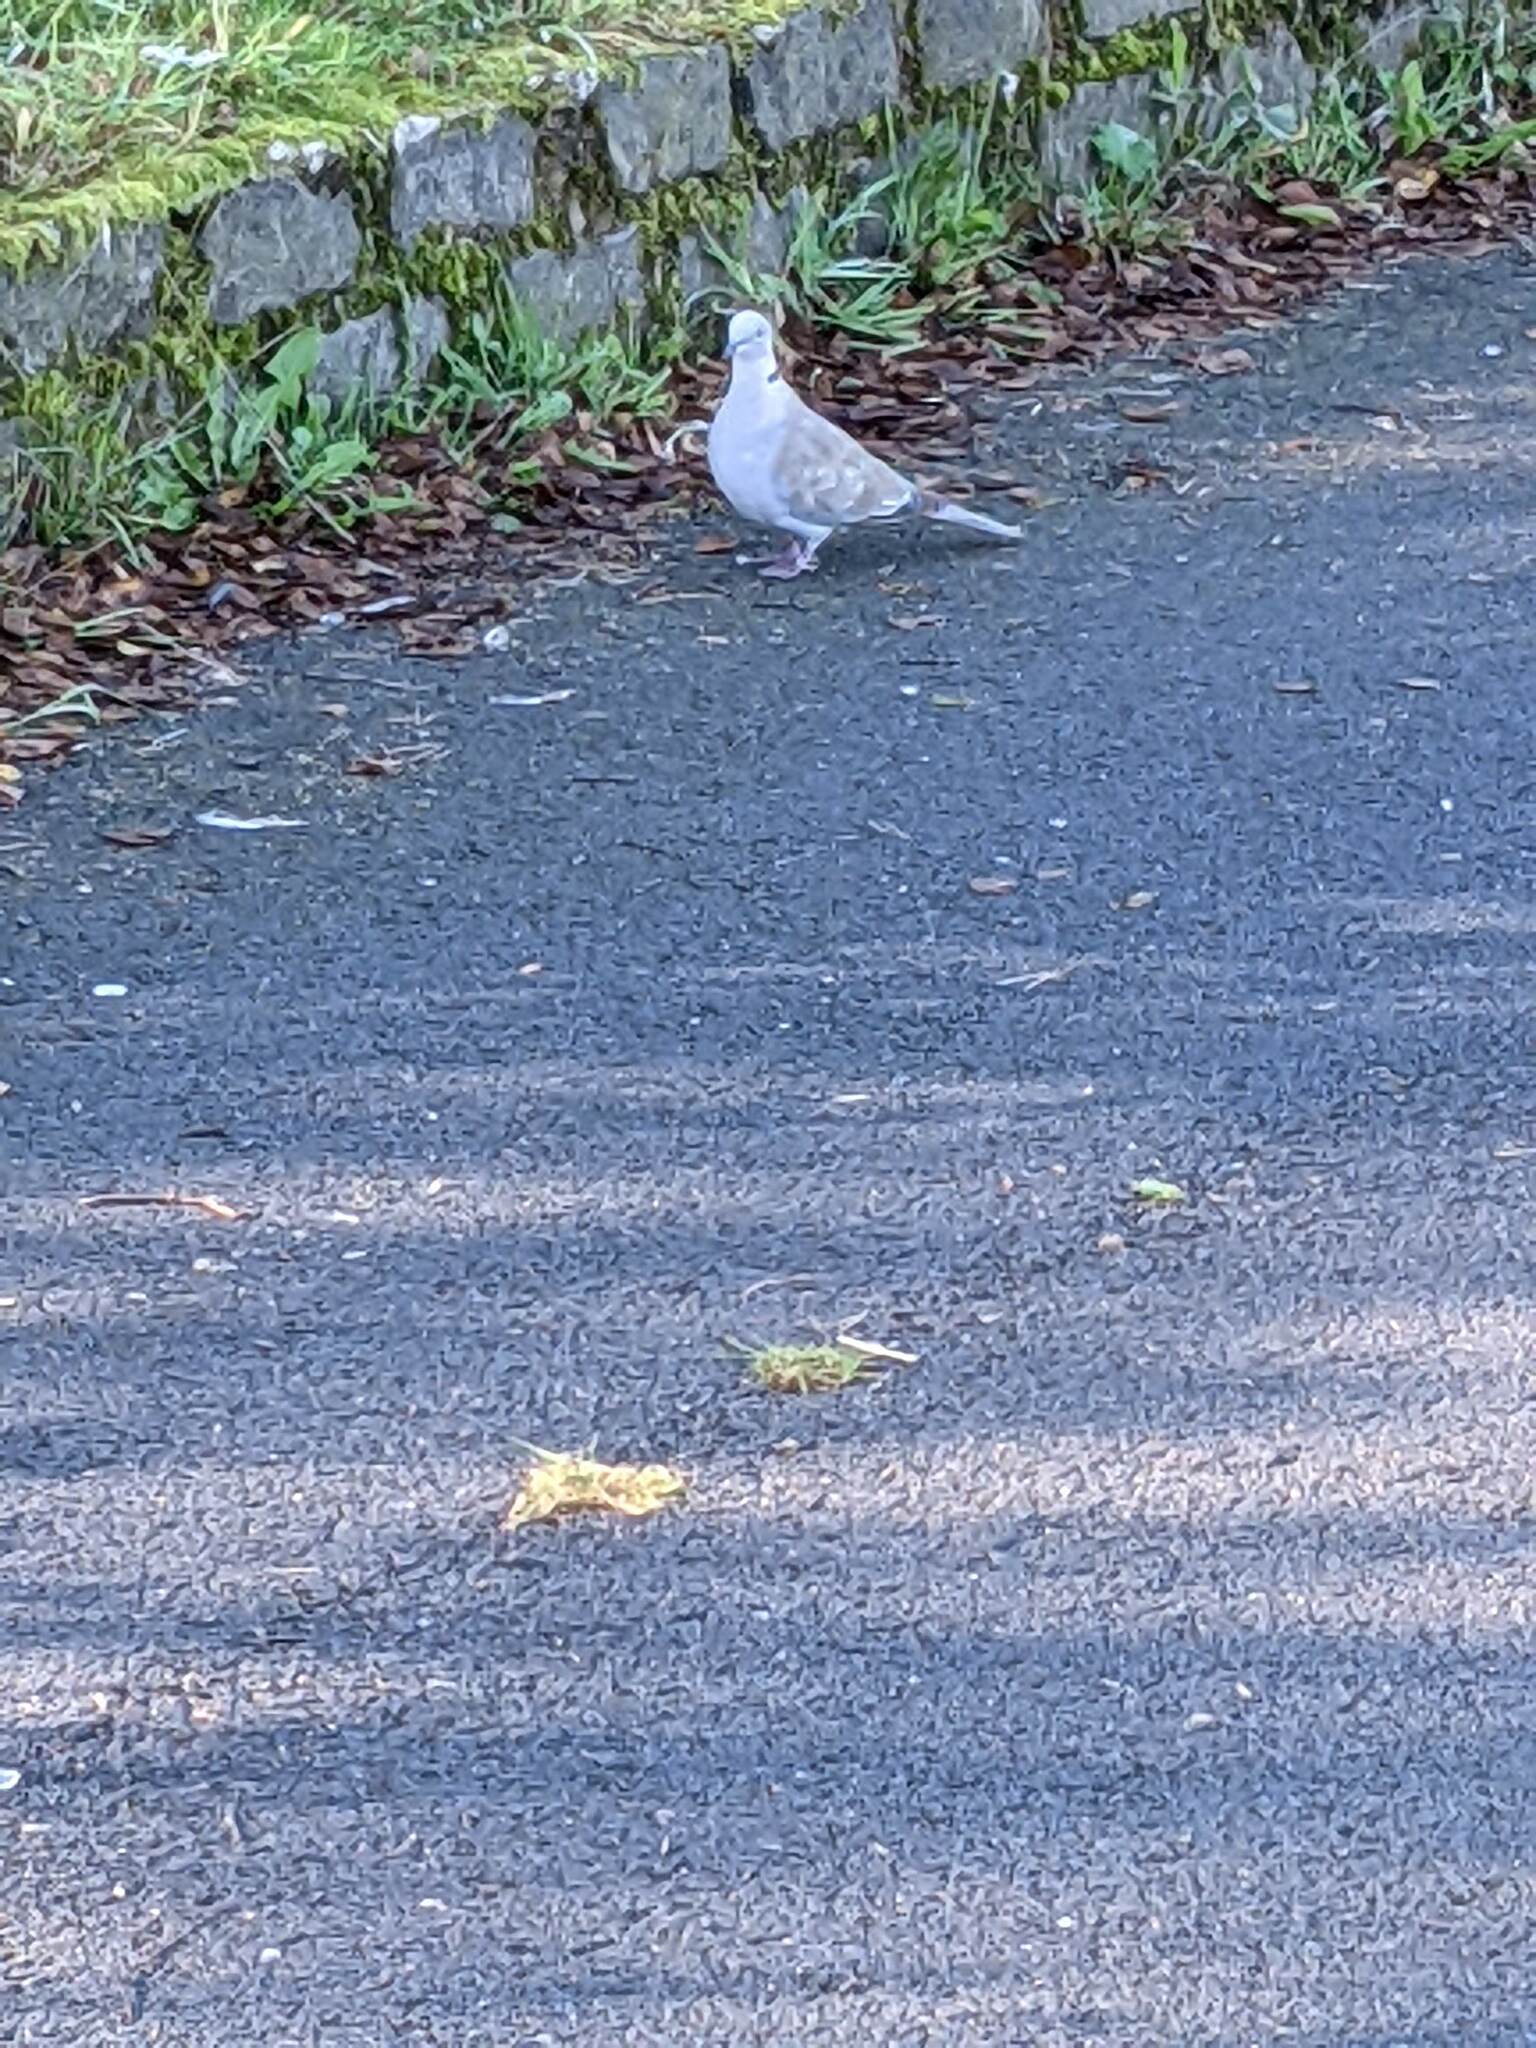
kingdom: Animalia
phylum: Chordata
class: Aves
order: Columbiformes
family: Columbidae
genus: Streptopelia
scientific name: Streptopelia decaocto
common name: Eurasian collared dove
